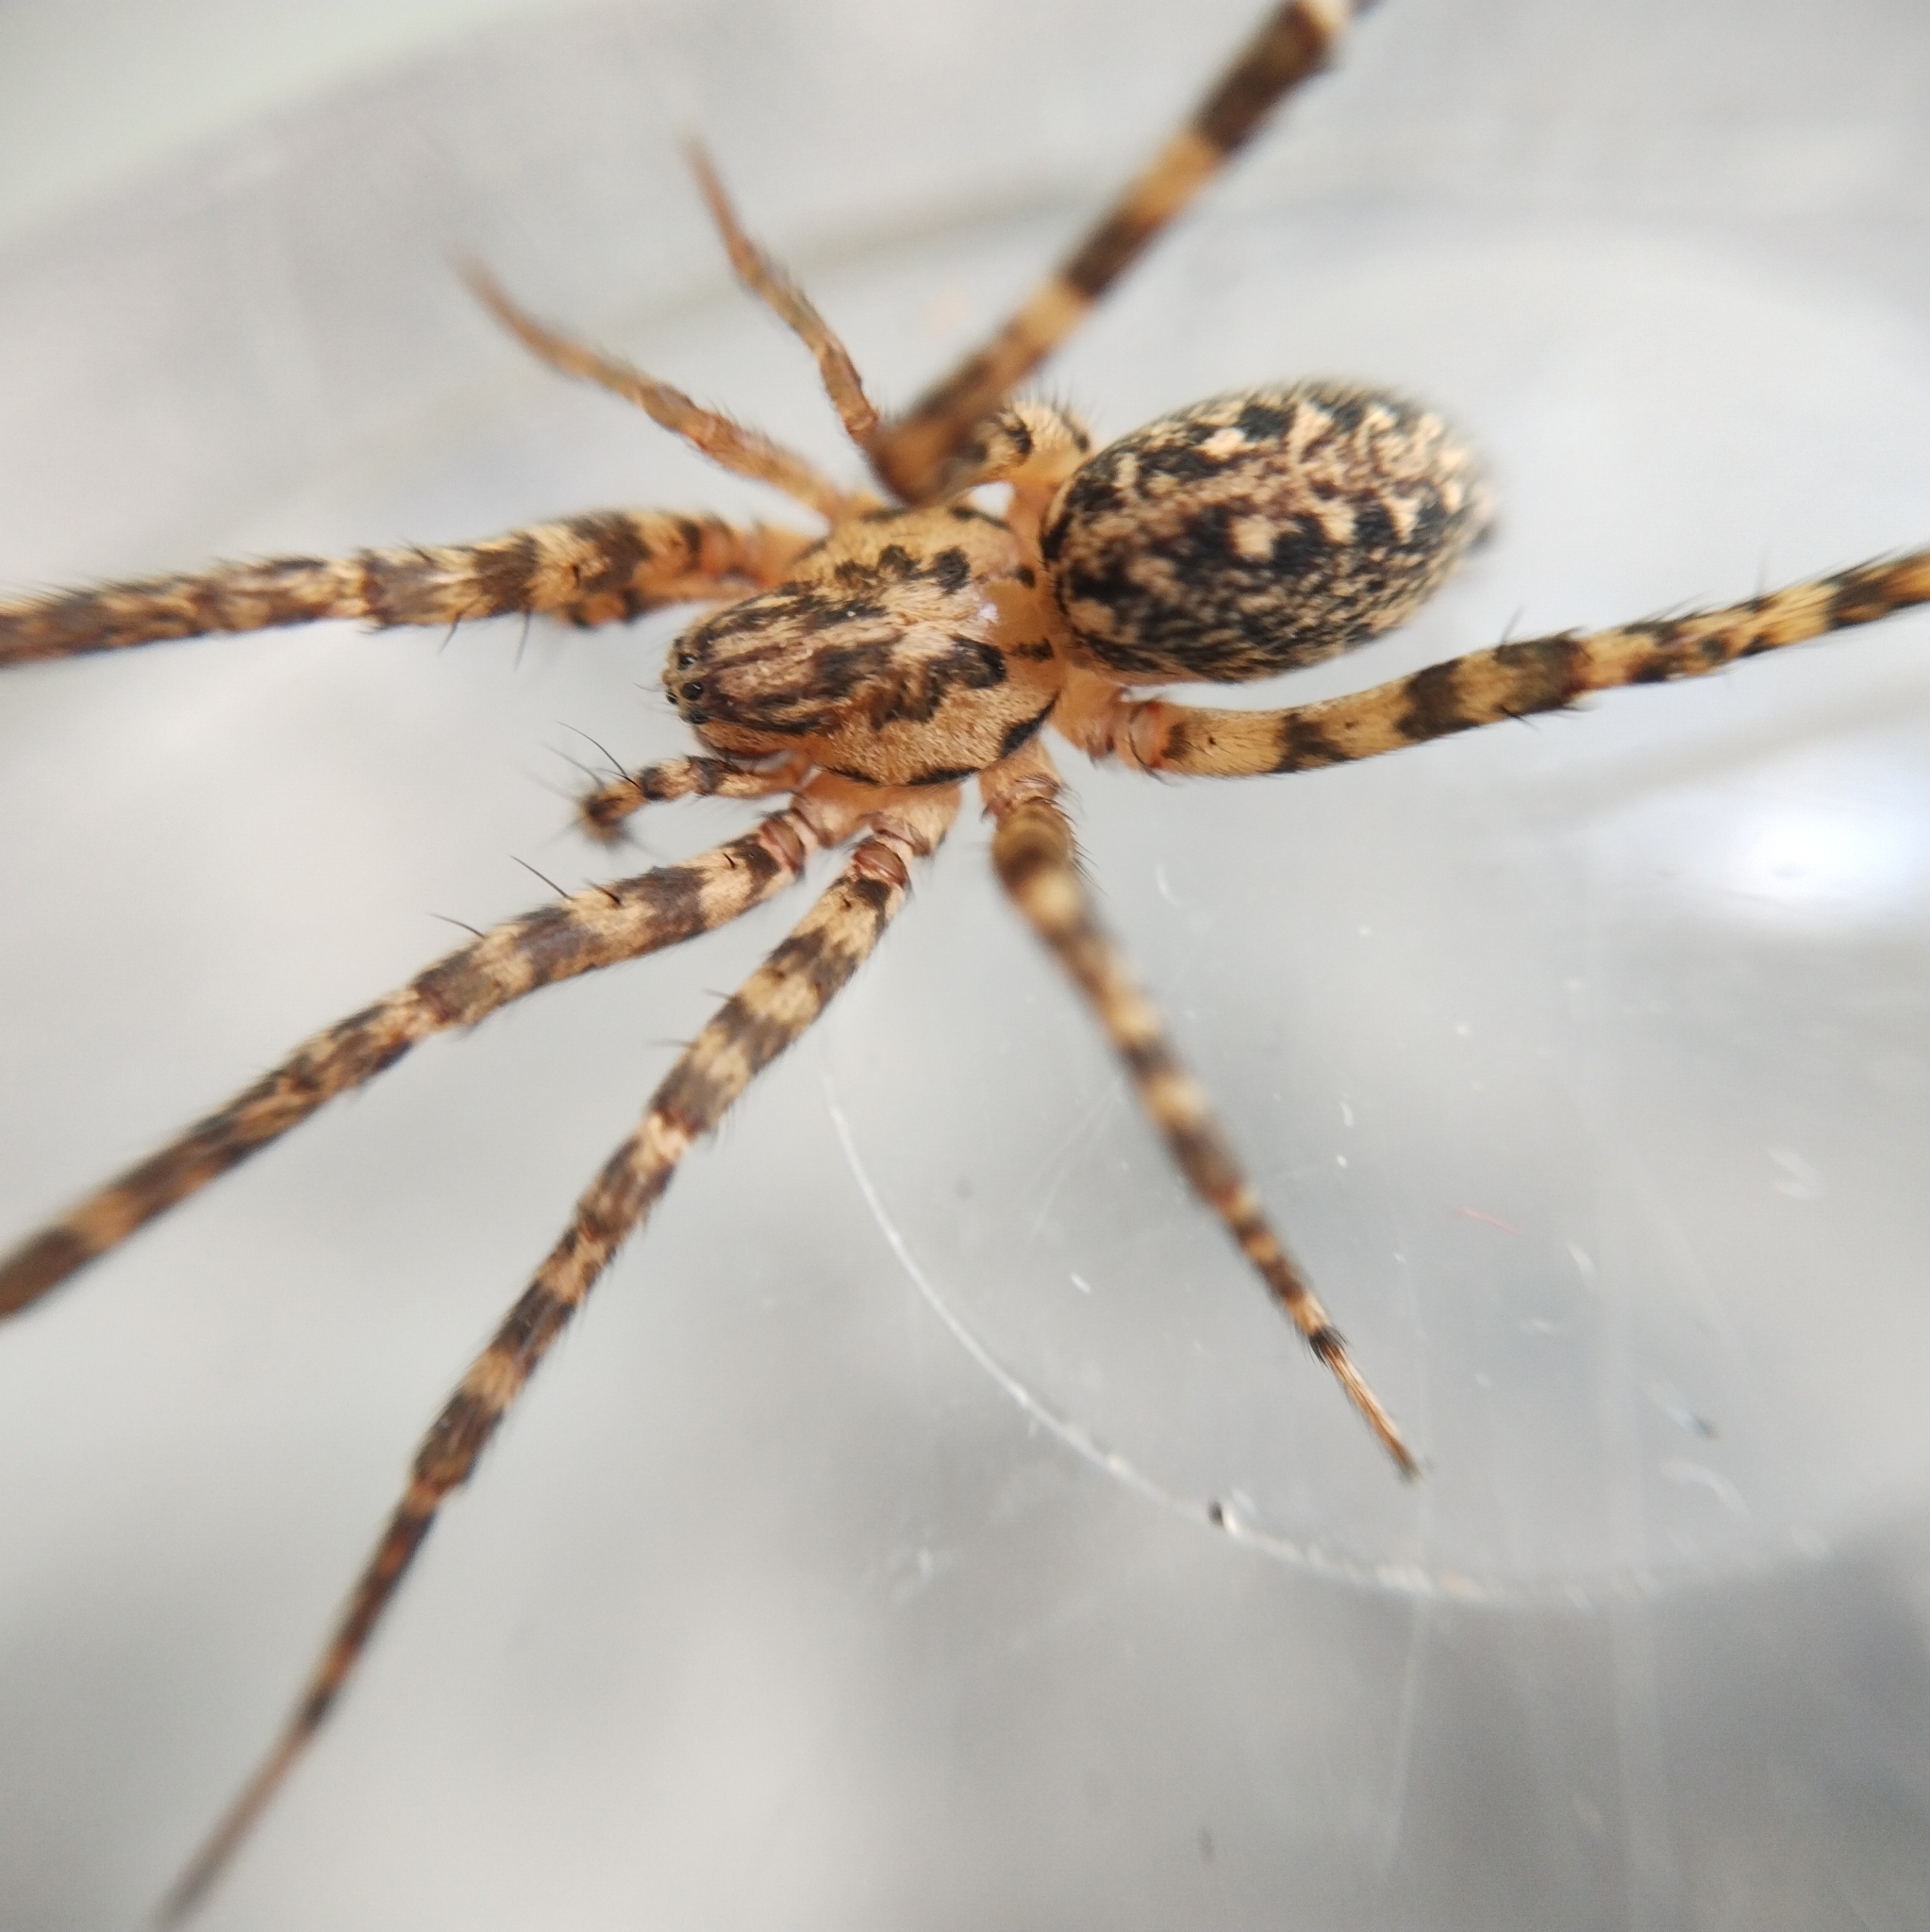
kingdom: Animalia
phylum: Arthropoda
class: Arachnida
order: Araneae
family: Agelenidae
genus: Tegenaria
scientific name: Tegenaria campestris
